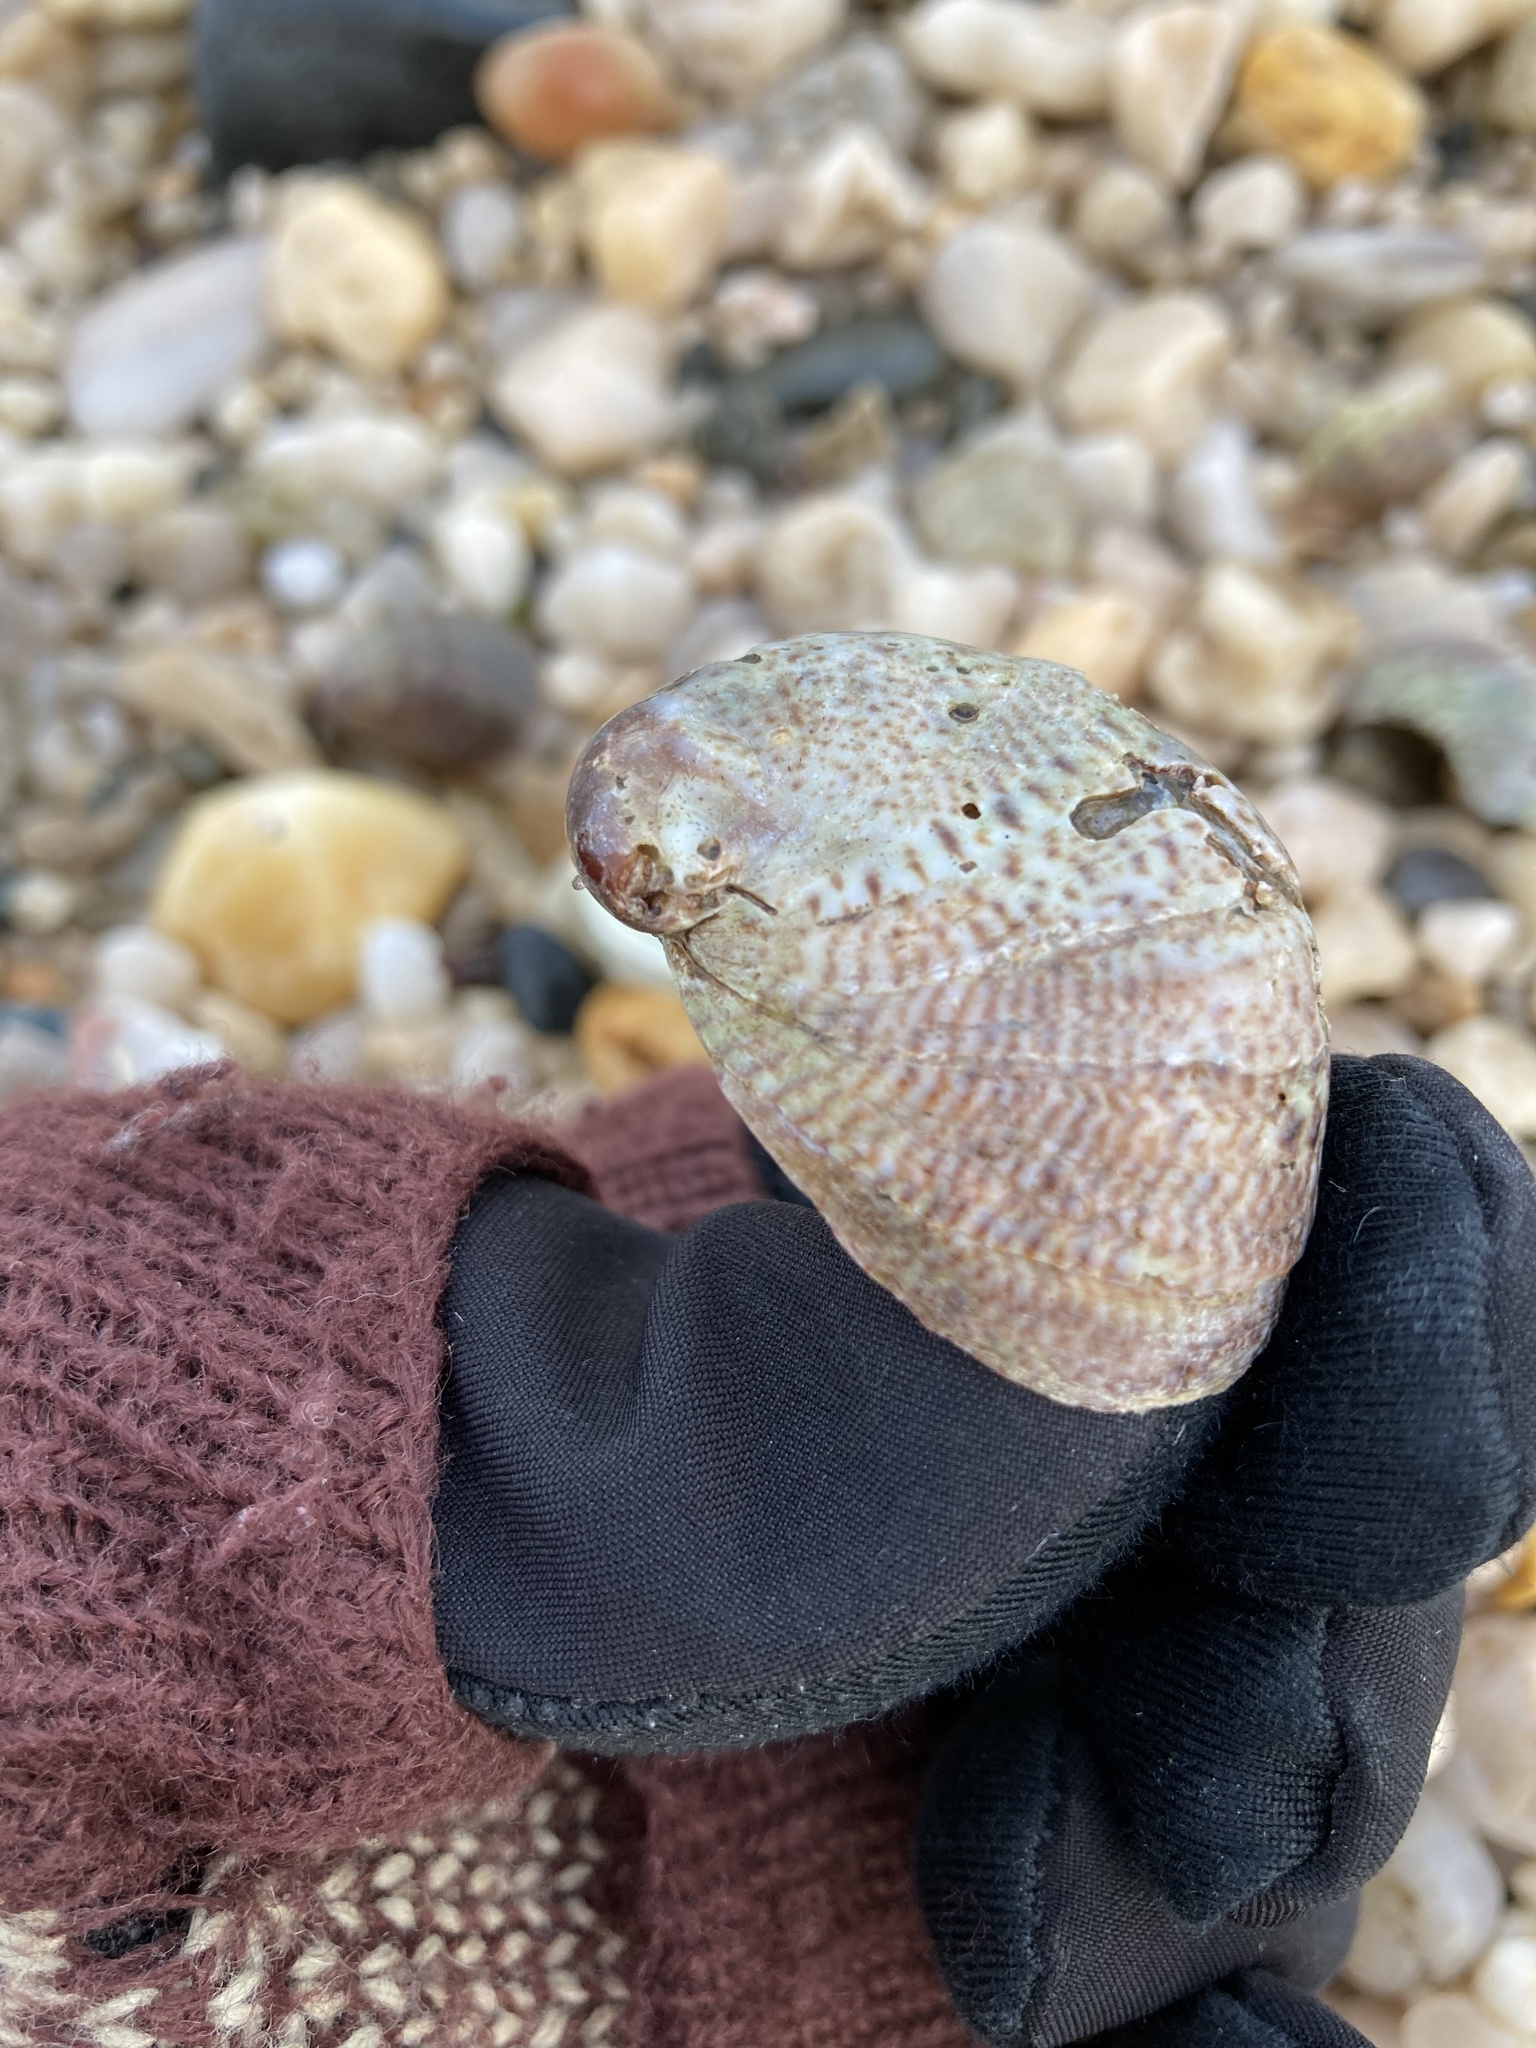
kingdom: Animalia
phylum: Mollusca
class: Gastropoda
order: Littorinimorpha
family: Calyptraeidae
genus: Crepidula
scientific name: Crepidula fornicata
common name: Slipper limpet
